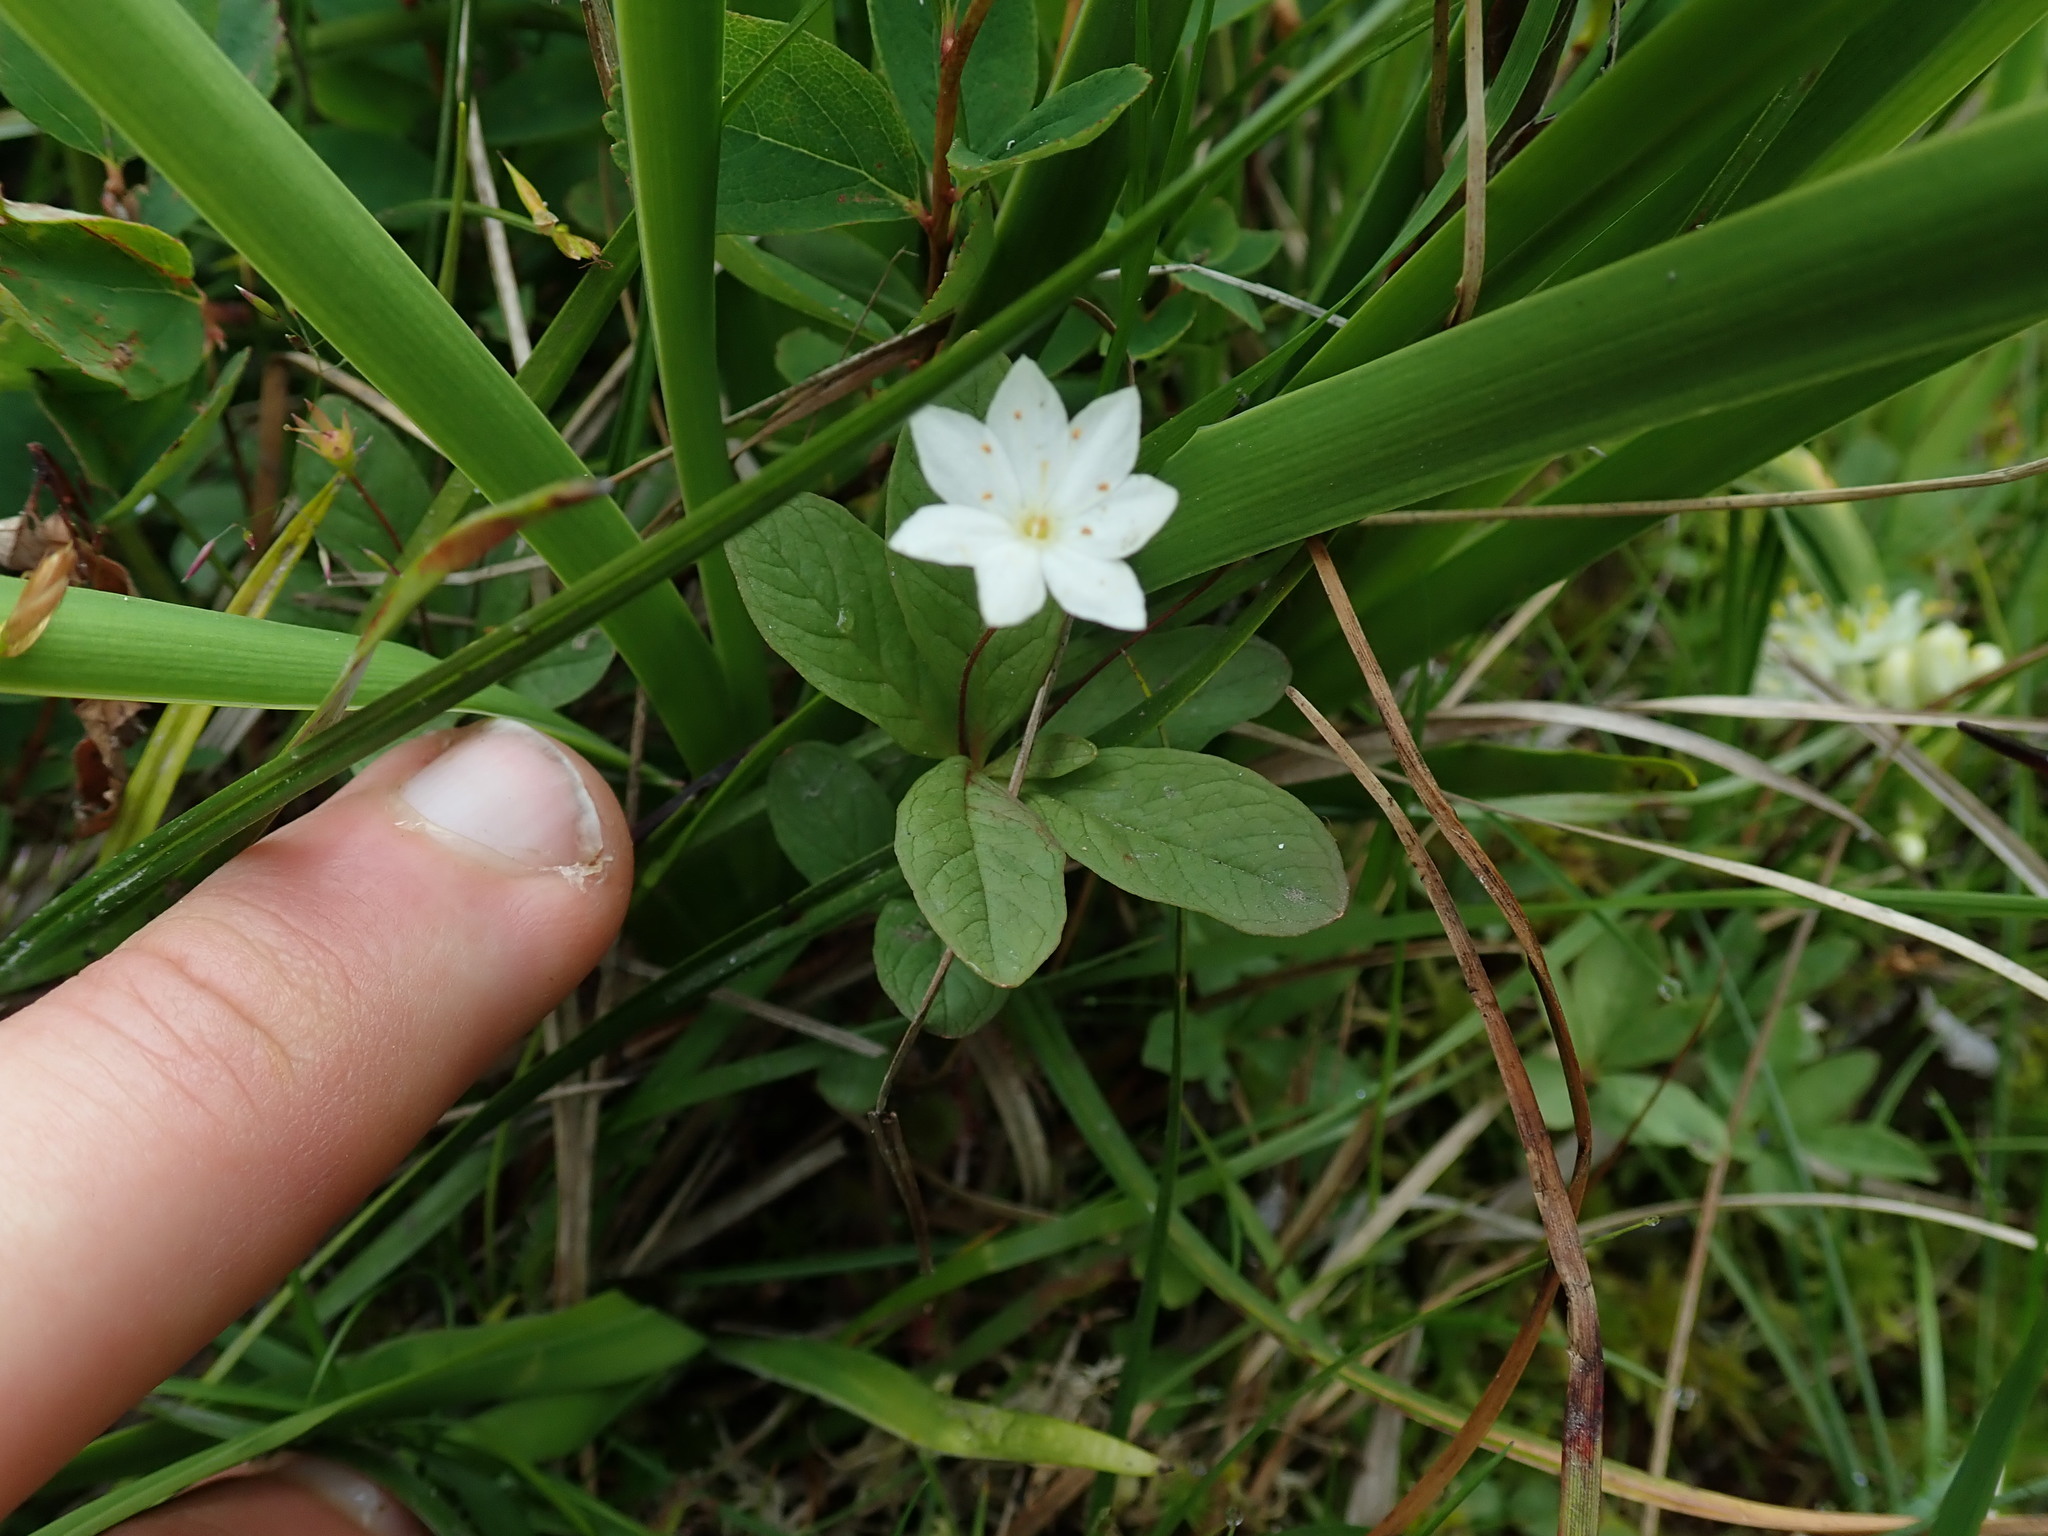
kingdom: Plantae
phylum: Tracheophyta
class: Magnoliopsida
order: Ericales
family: Primulaceae
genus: Lysimachia
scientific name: Lysimachia europaea
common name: Arctic starflower
